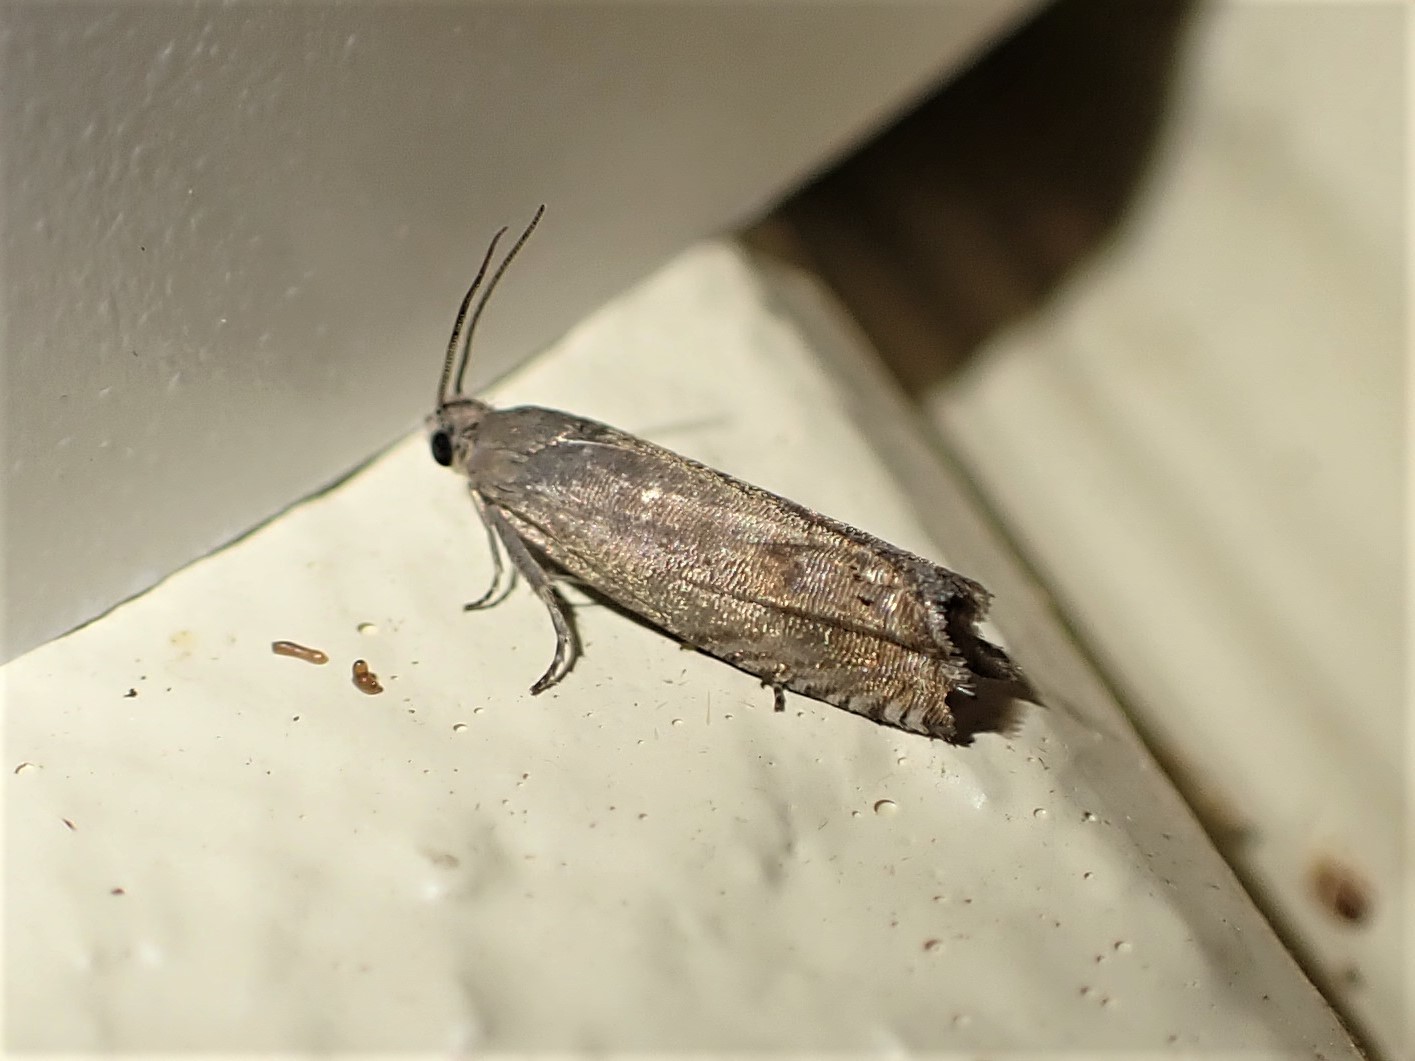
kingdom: Animalia
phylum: Arthropoda
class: Insecta
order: Lepidoptera
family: Tortricidae
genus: Cydia
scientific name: Cydia succedana
